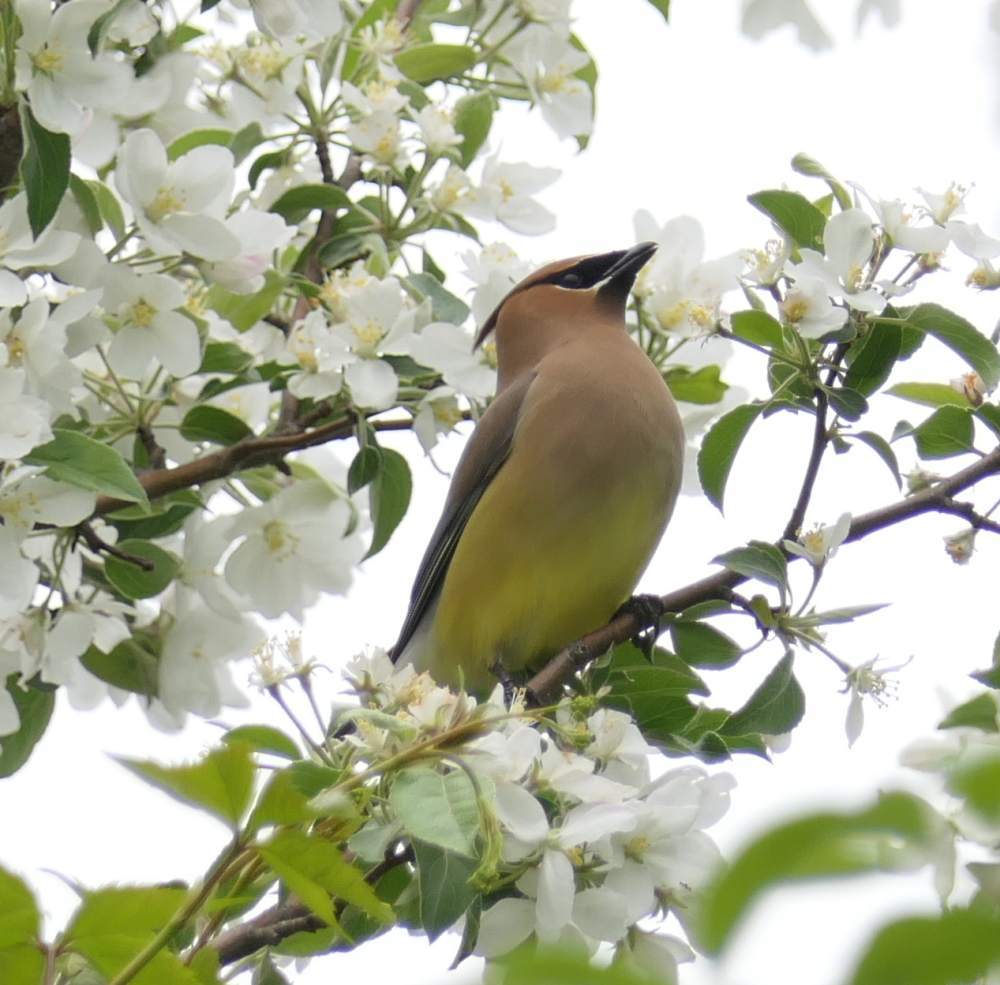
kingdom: Animalia
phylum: Chordata
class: Aves
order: Passeriformes
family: Bombycillidae
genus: Bombycilla
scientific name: Bombycilla cedrorum
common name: Cedar waxwing
